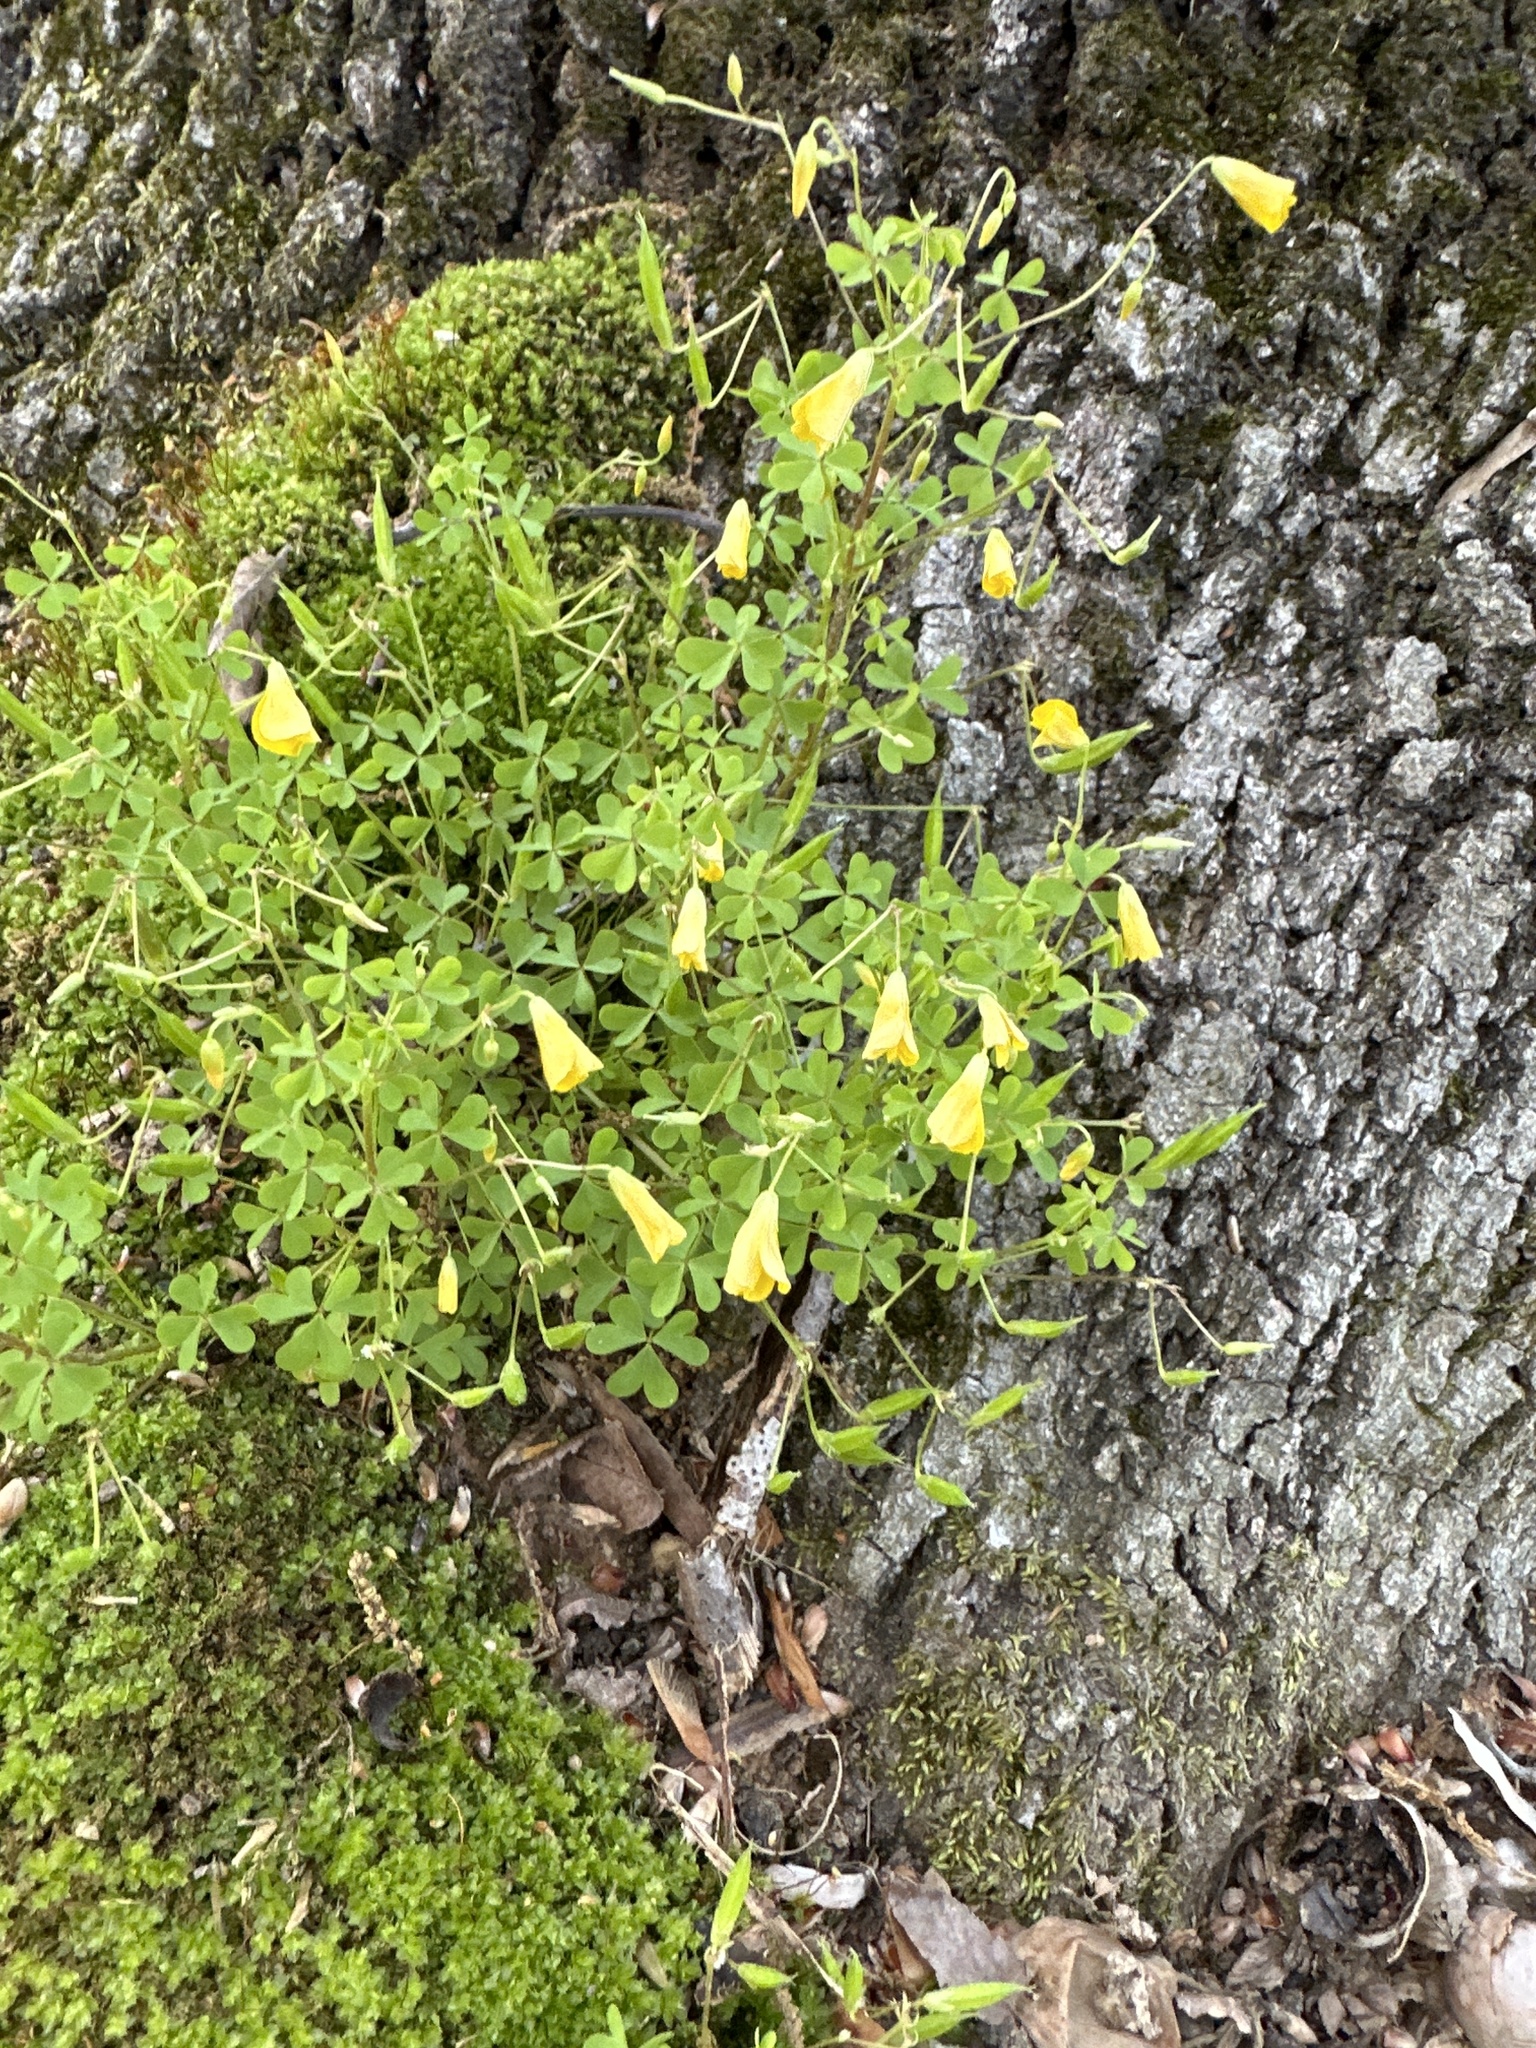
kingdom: Plantae
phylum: Tracheophyta
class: Magnoliopsida
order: Oxalidales
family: Oxalidaceae
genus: Oxalis
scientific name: Oxalis dillenii
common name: Sussex yellow-sorrel
